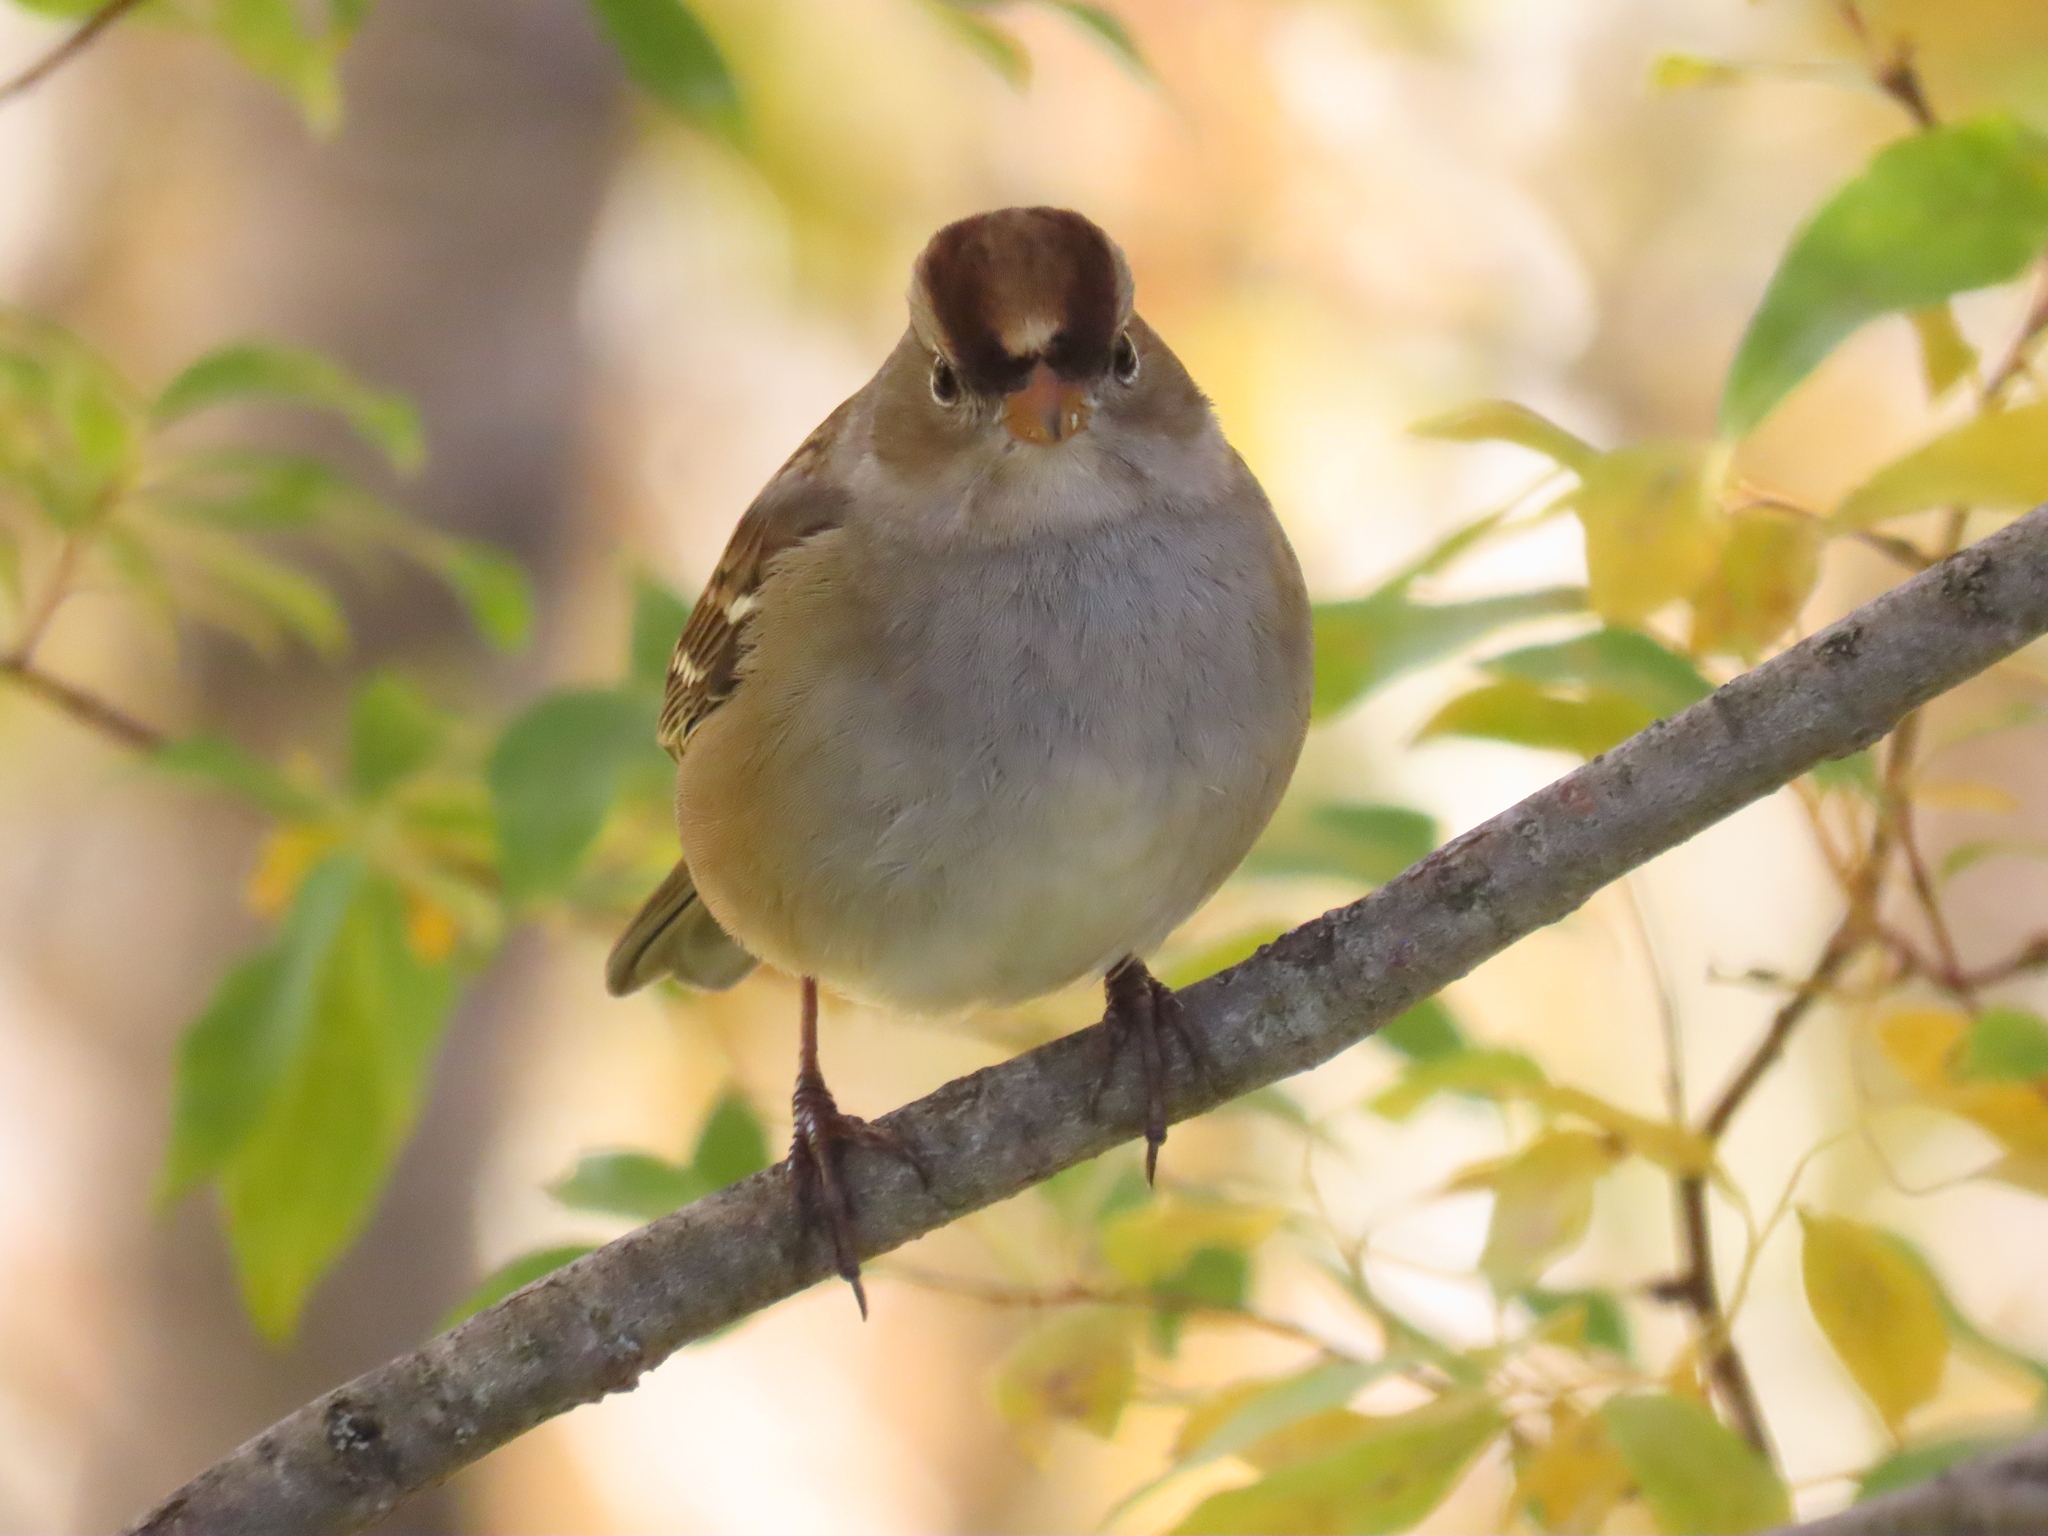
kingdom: Animalia
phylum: Chordata
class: Aves
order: Passeriformes
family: Passerellidae
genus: Zonotrichia
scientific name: Zonotrichia leucophrys
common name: White-crowned sparrow
